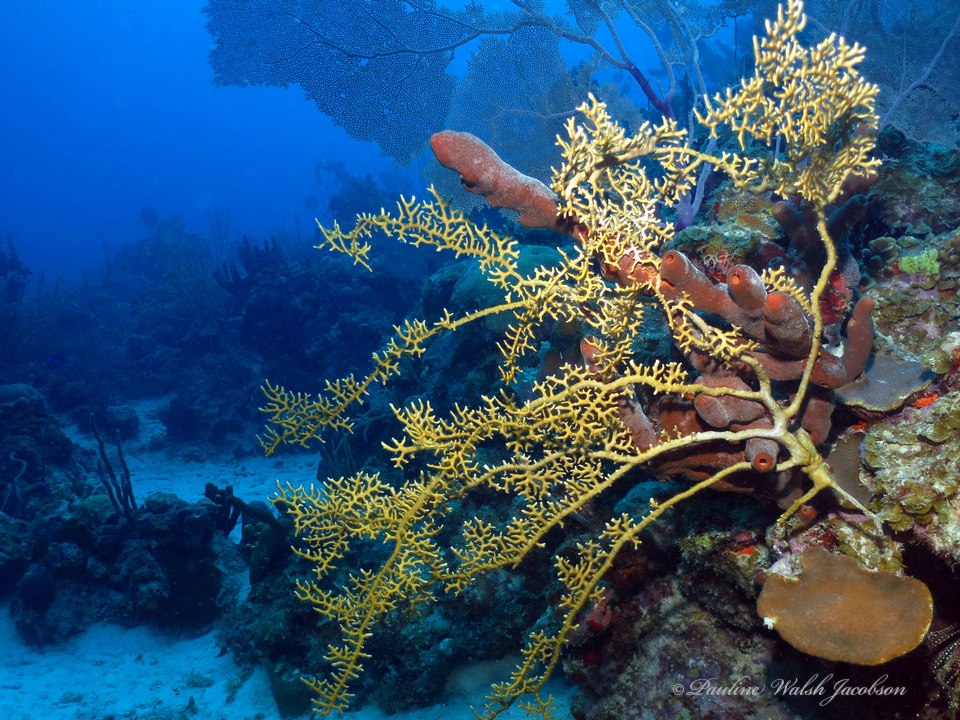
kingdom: Animalia
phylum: Cnidaria
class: Hydrozoa
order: Anthoathecata
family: Milleporidae
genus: Millepora
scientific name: Millepora alcicornis
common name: Branching fire coral
